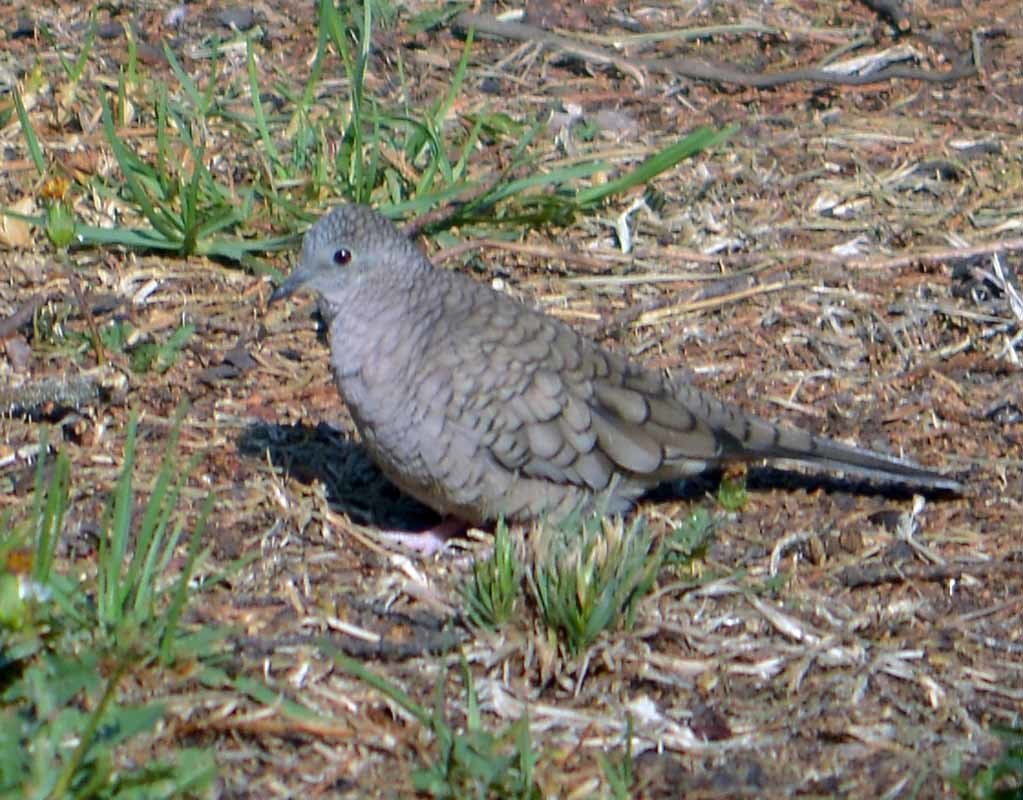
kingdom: Animalia
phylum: Chordata
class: Aves
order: Columbiformes
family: Columbidae
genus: Columbina
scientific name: Columbina inca
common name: Inca dove
